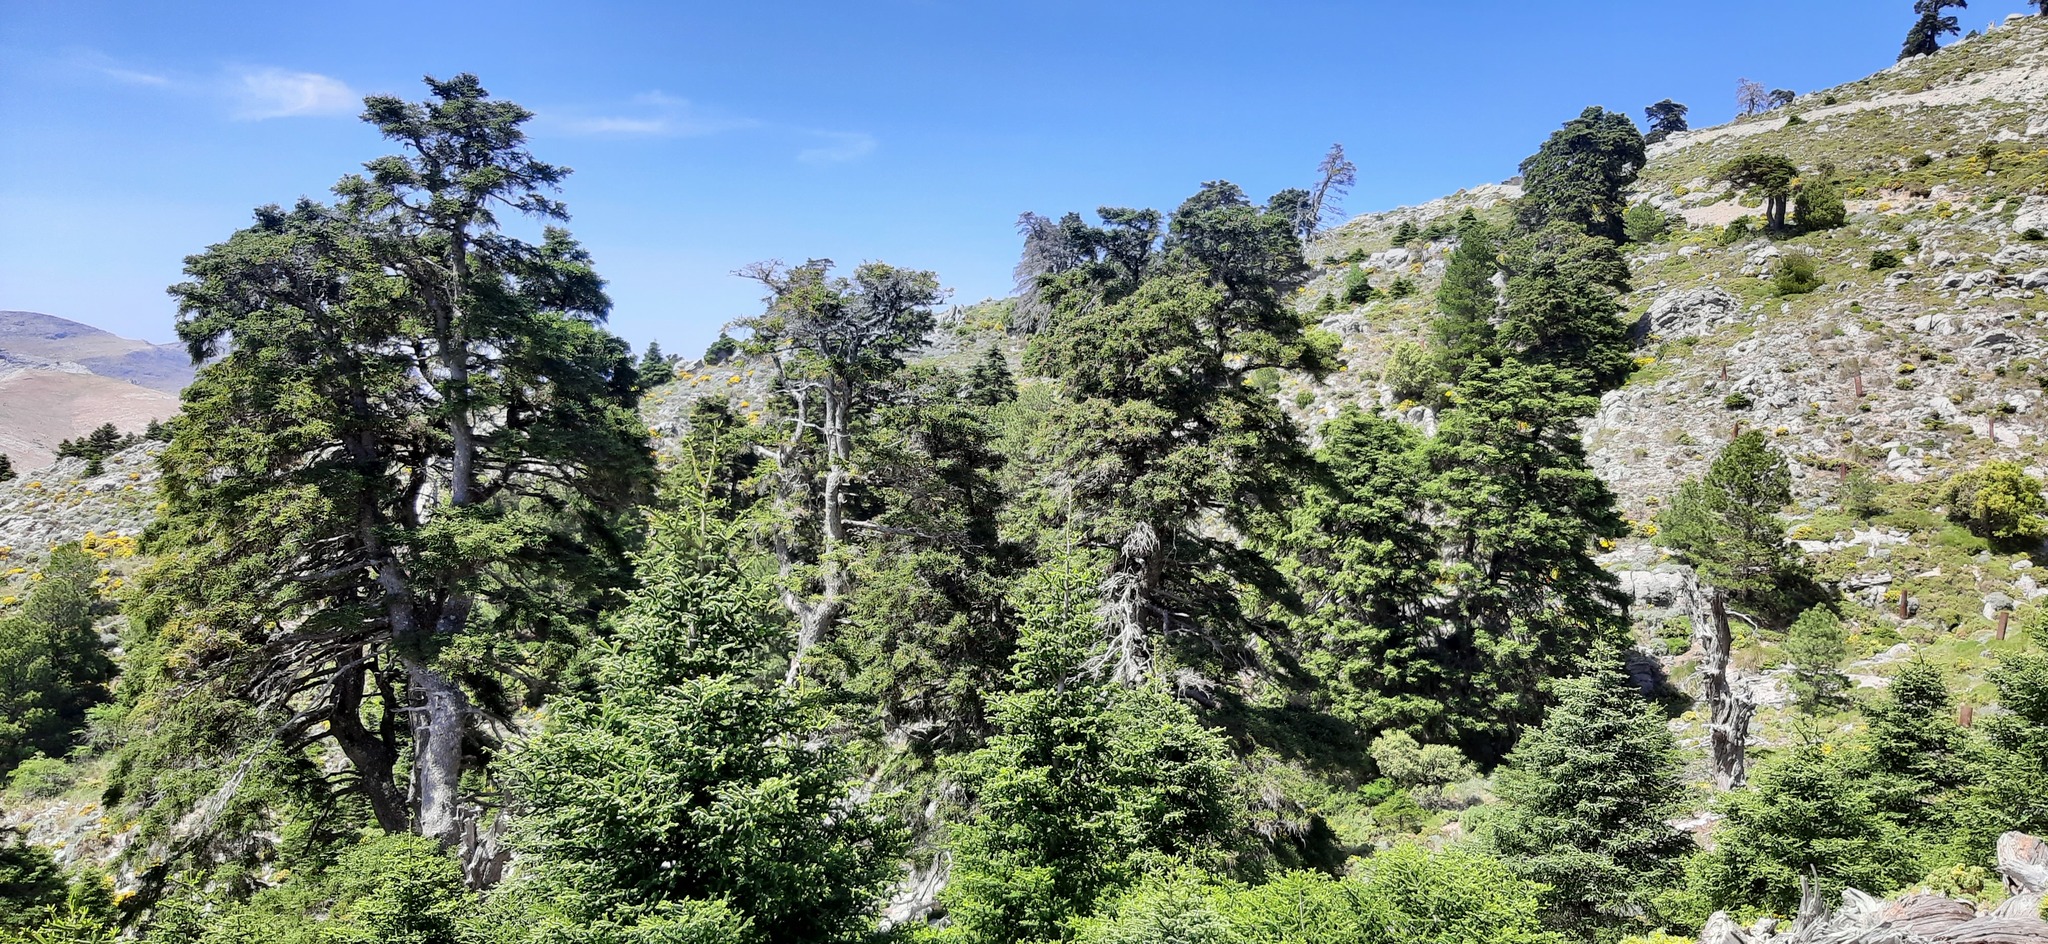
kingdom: Plantae
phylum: Tracheophyta
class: Pinopsida
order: Pinales
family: Pinaceae
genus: Abies
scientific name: Abies pinsapo
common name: Spanish fir
